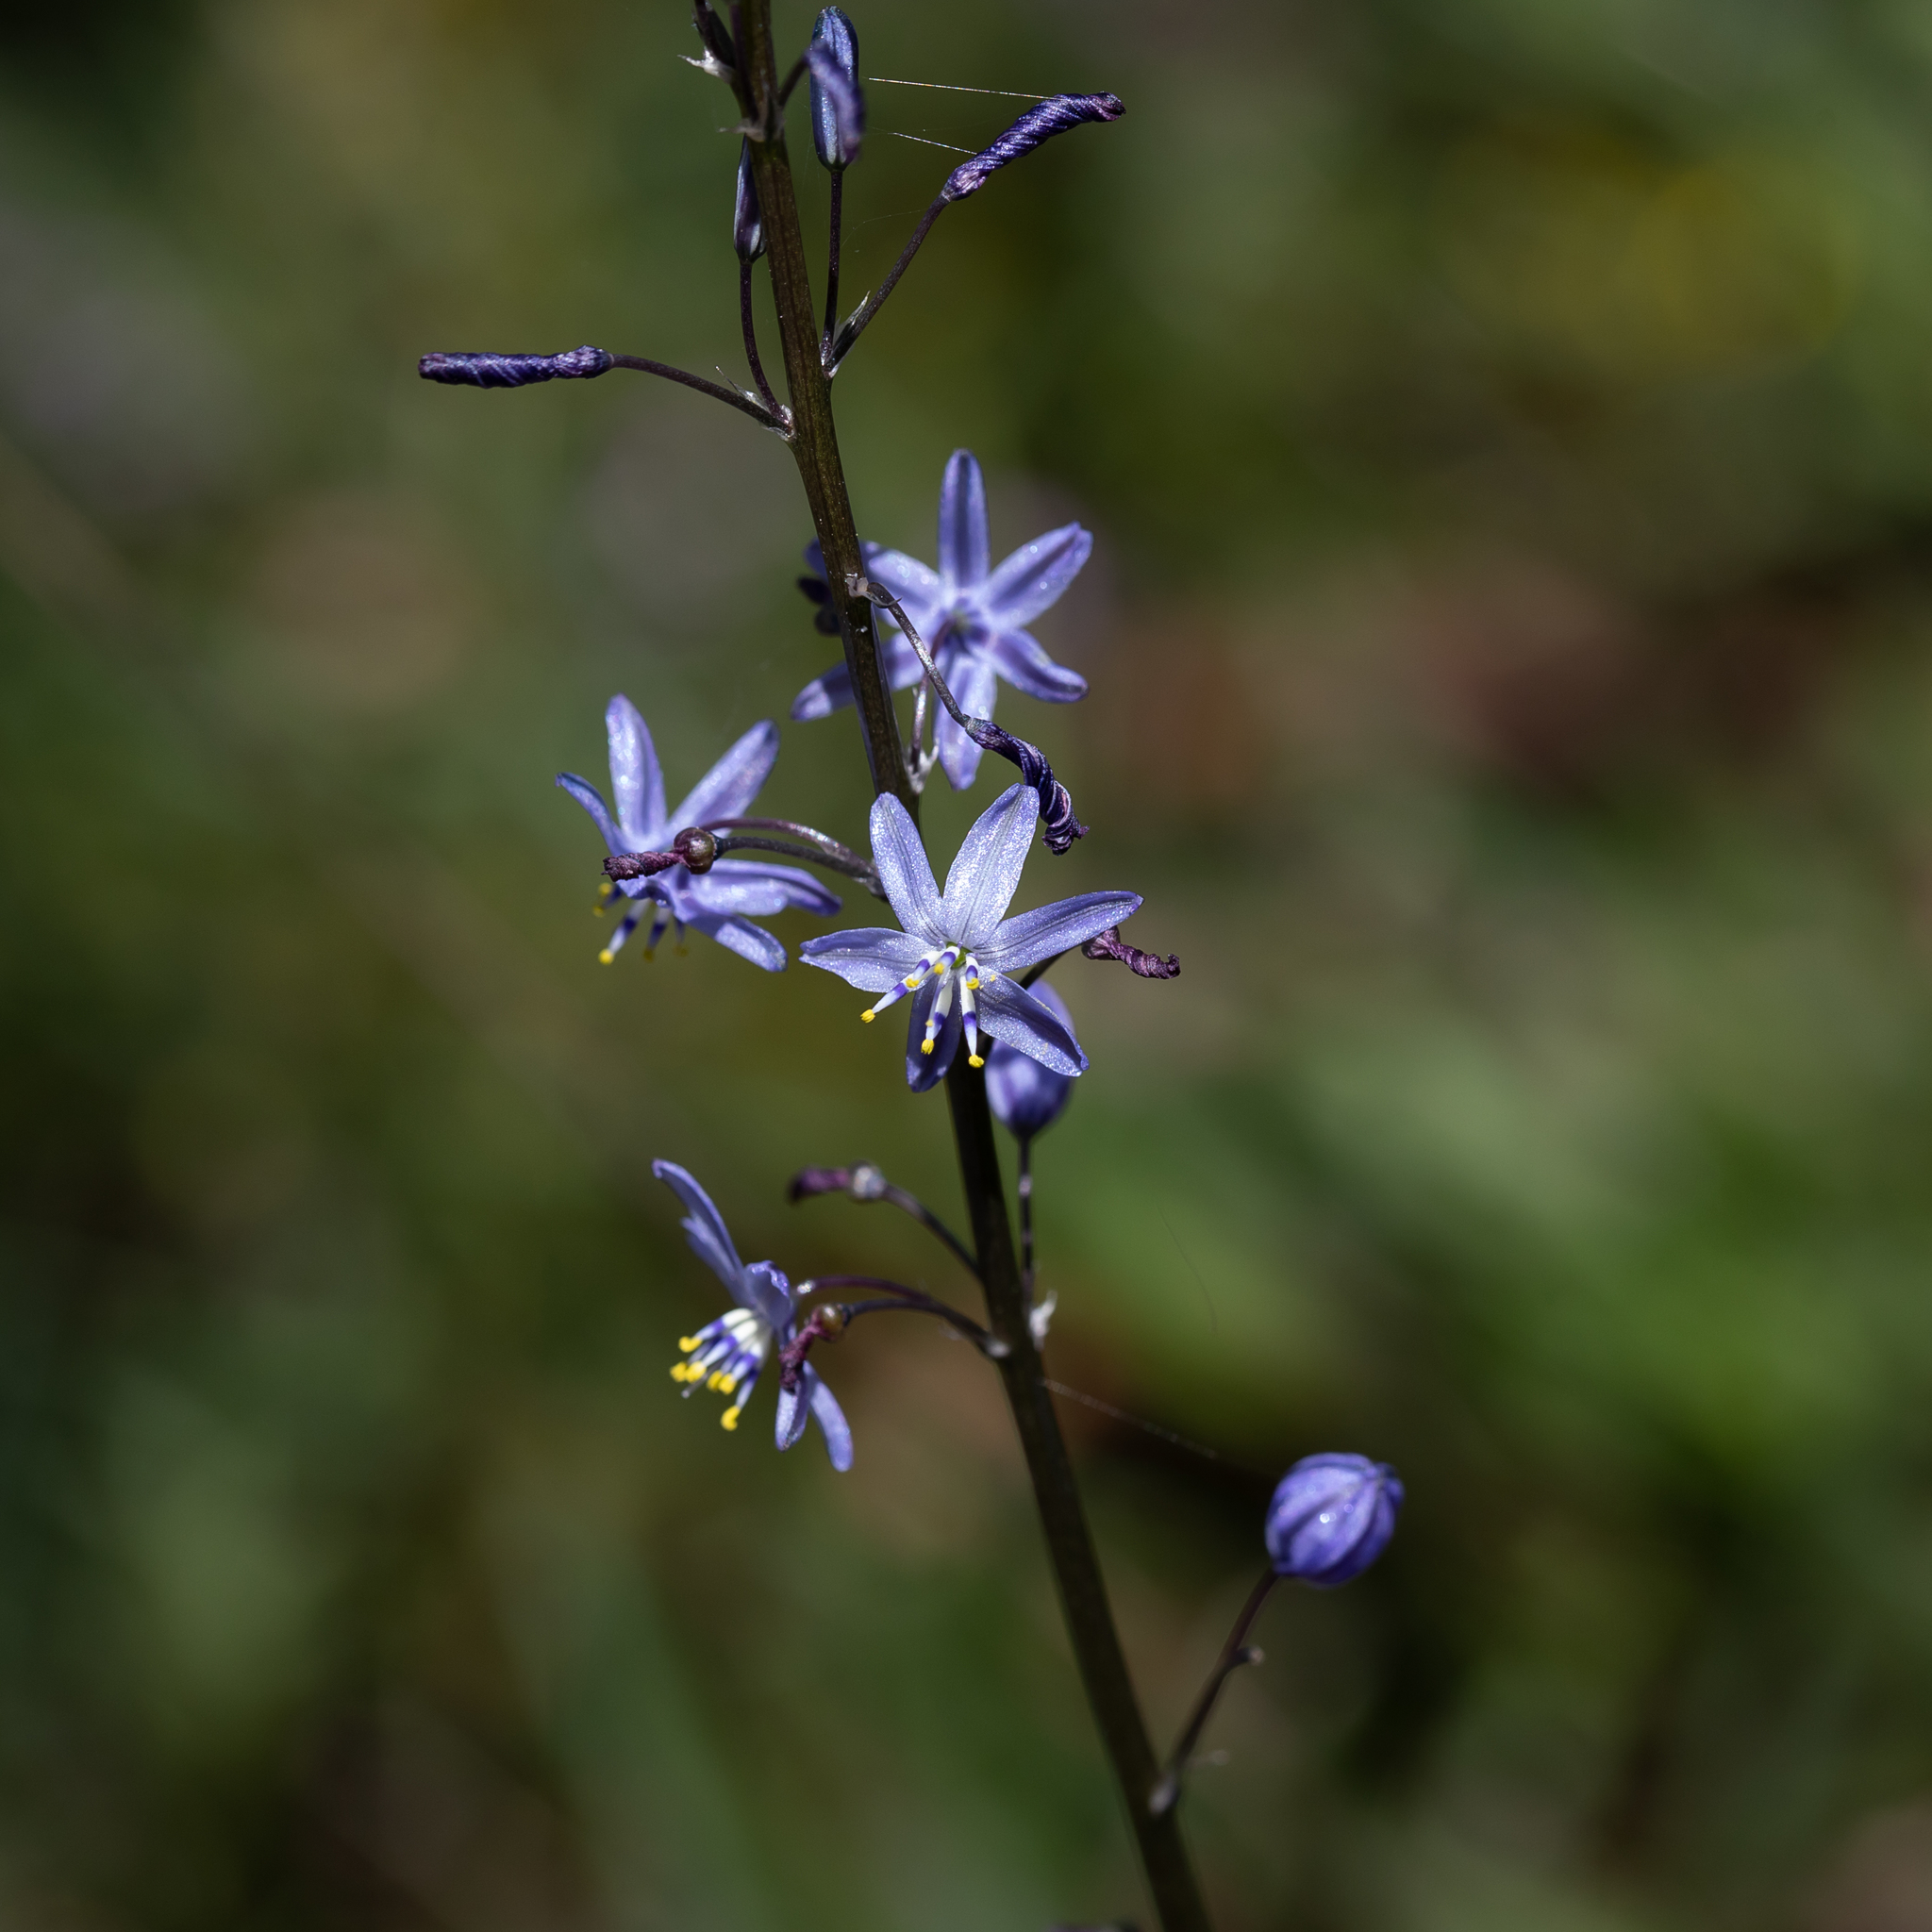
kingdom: Plantae
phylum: Tracheophyta
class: Liliopsida
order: Asparagales
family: Asphodelaceae
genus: Caesia
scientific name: Caesia calliantha
